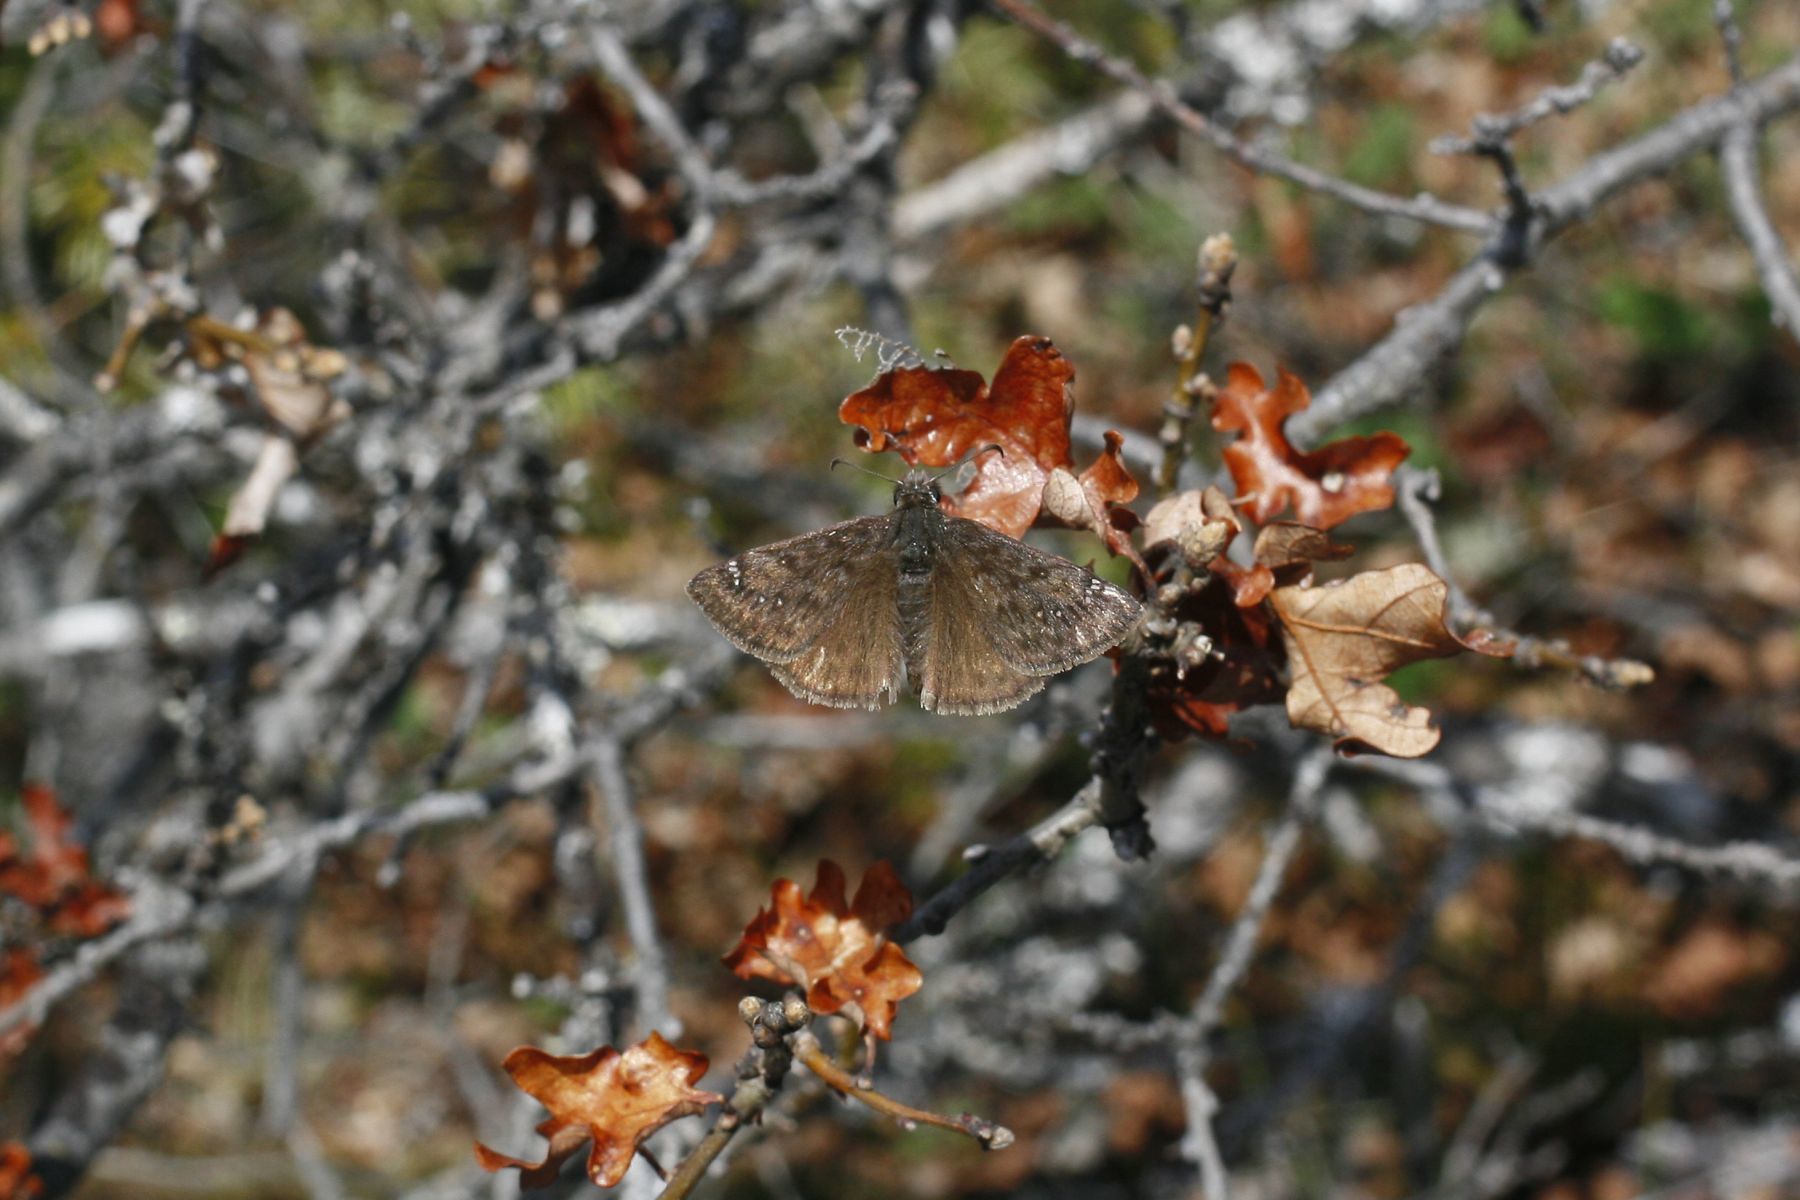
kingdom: Animalia
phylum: Arthropoda
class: Insecta
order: Lepidoptera
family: Hesperiidae
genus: Erynnis
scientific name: Erynnis propertius
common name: Propertius duskywing
